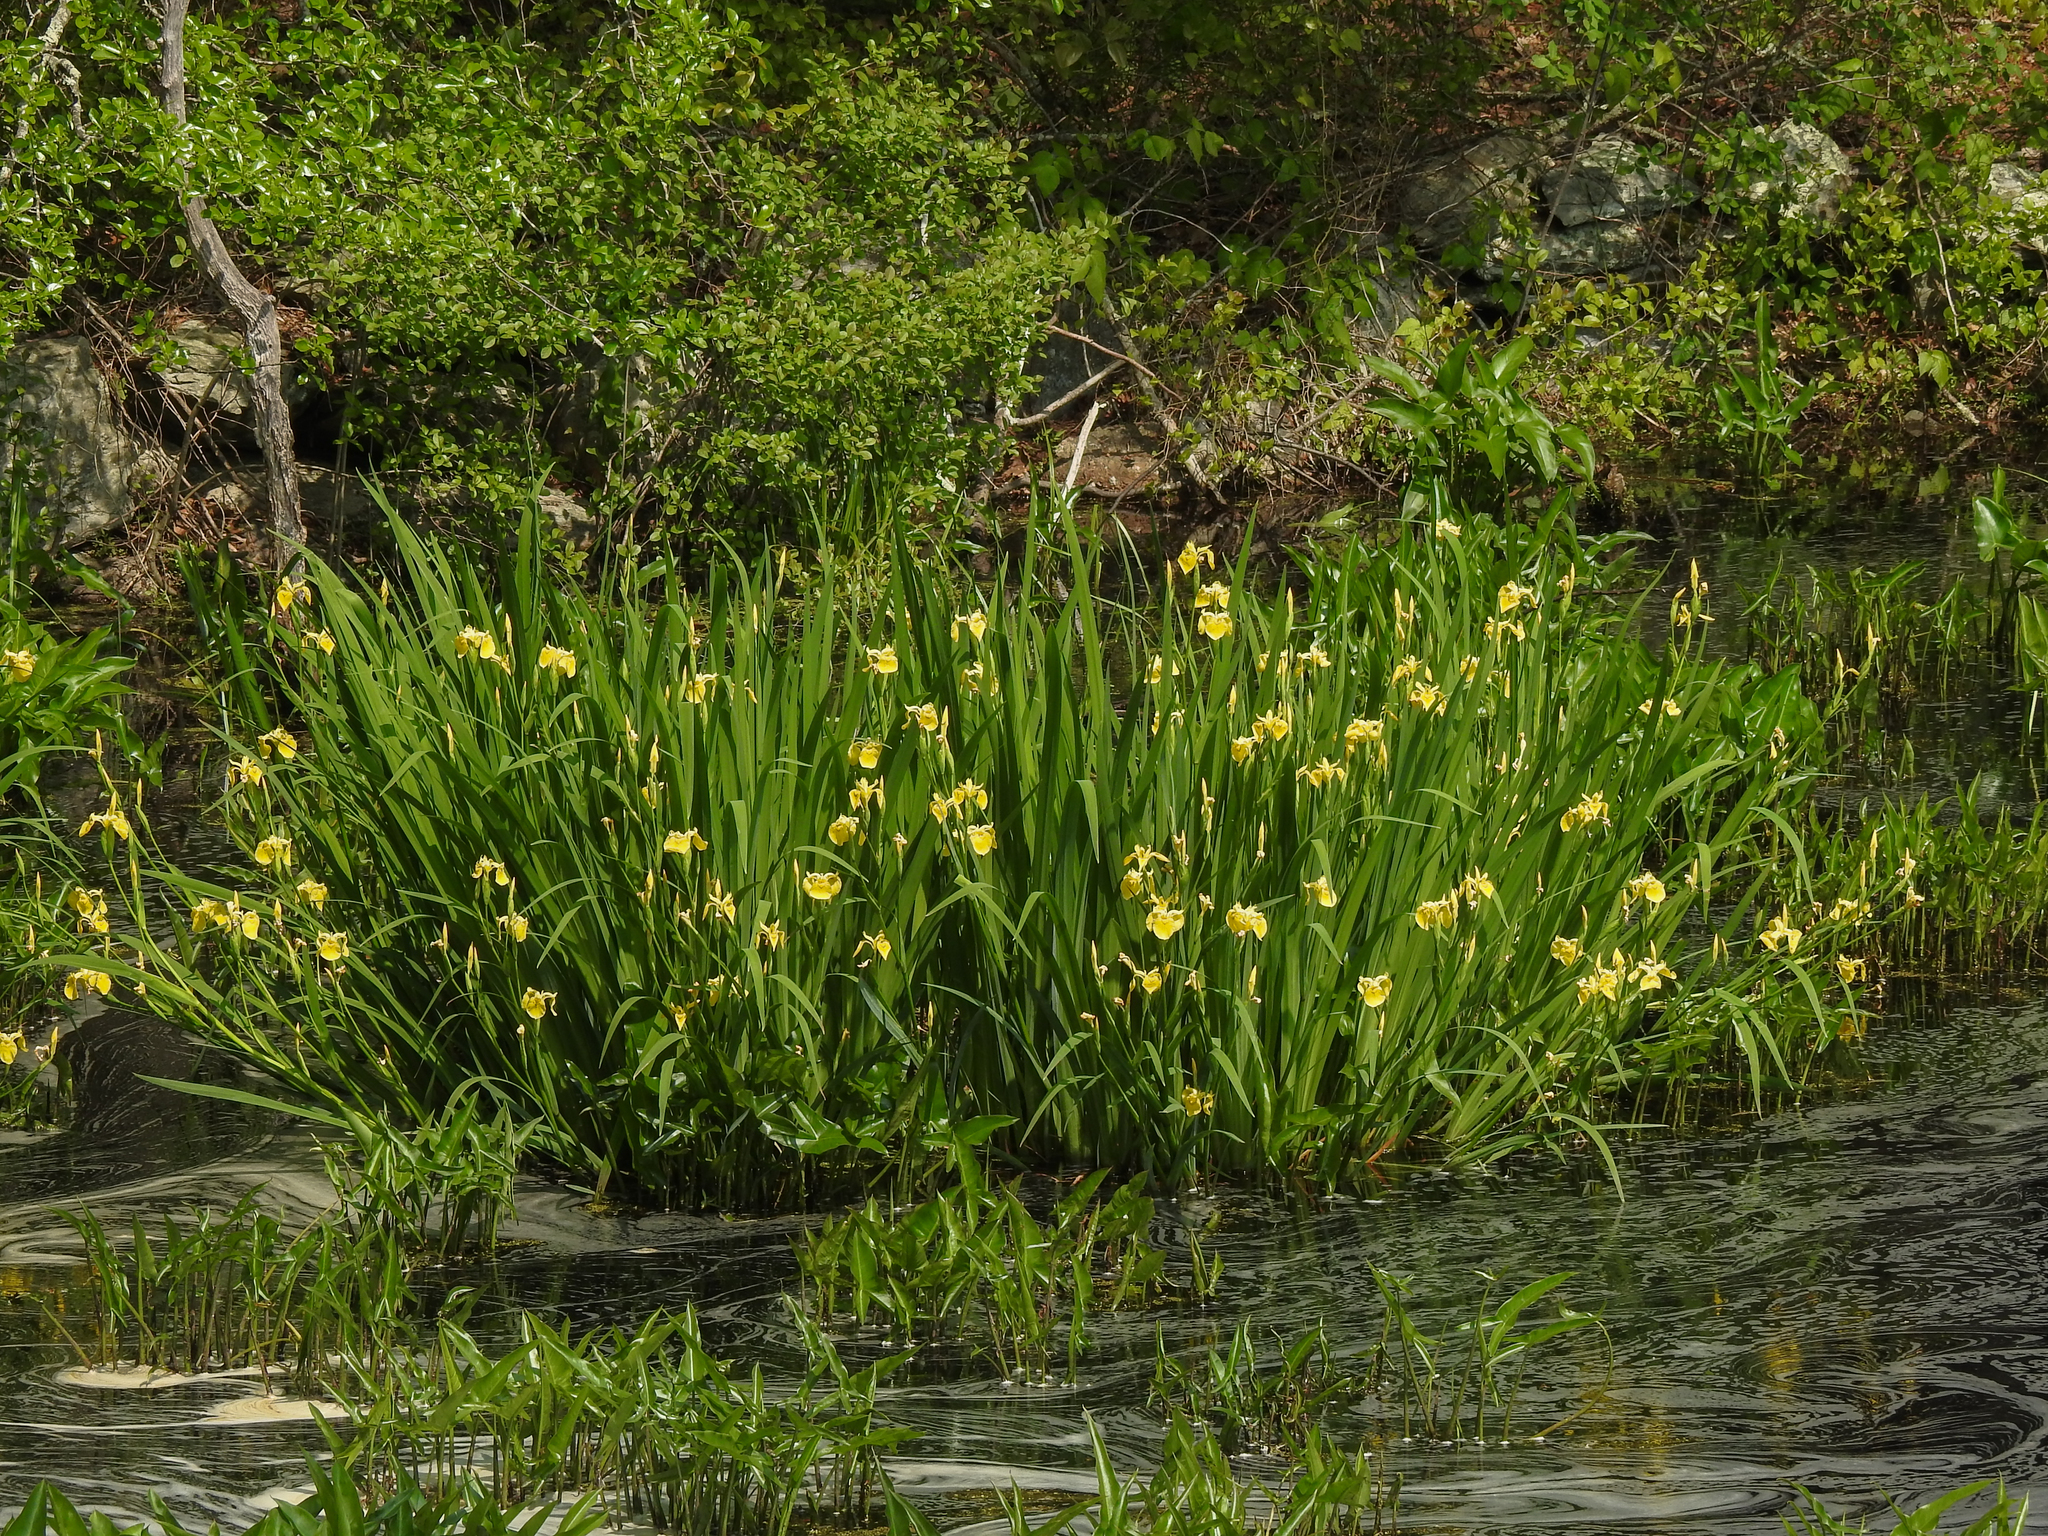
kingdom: Plantae
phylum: Tracheophyta
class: Liliopsida
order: Asparagales
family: Iridaceae
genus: Iris
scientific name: Iris pseudacorus
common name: Yellow flag
